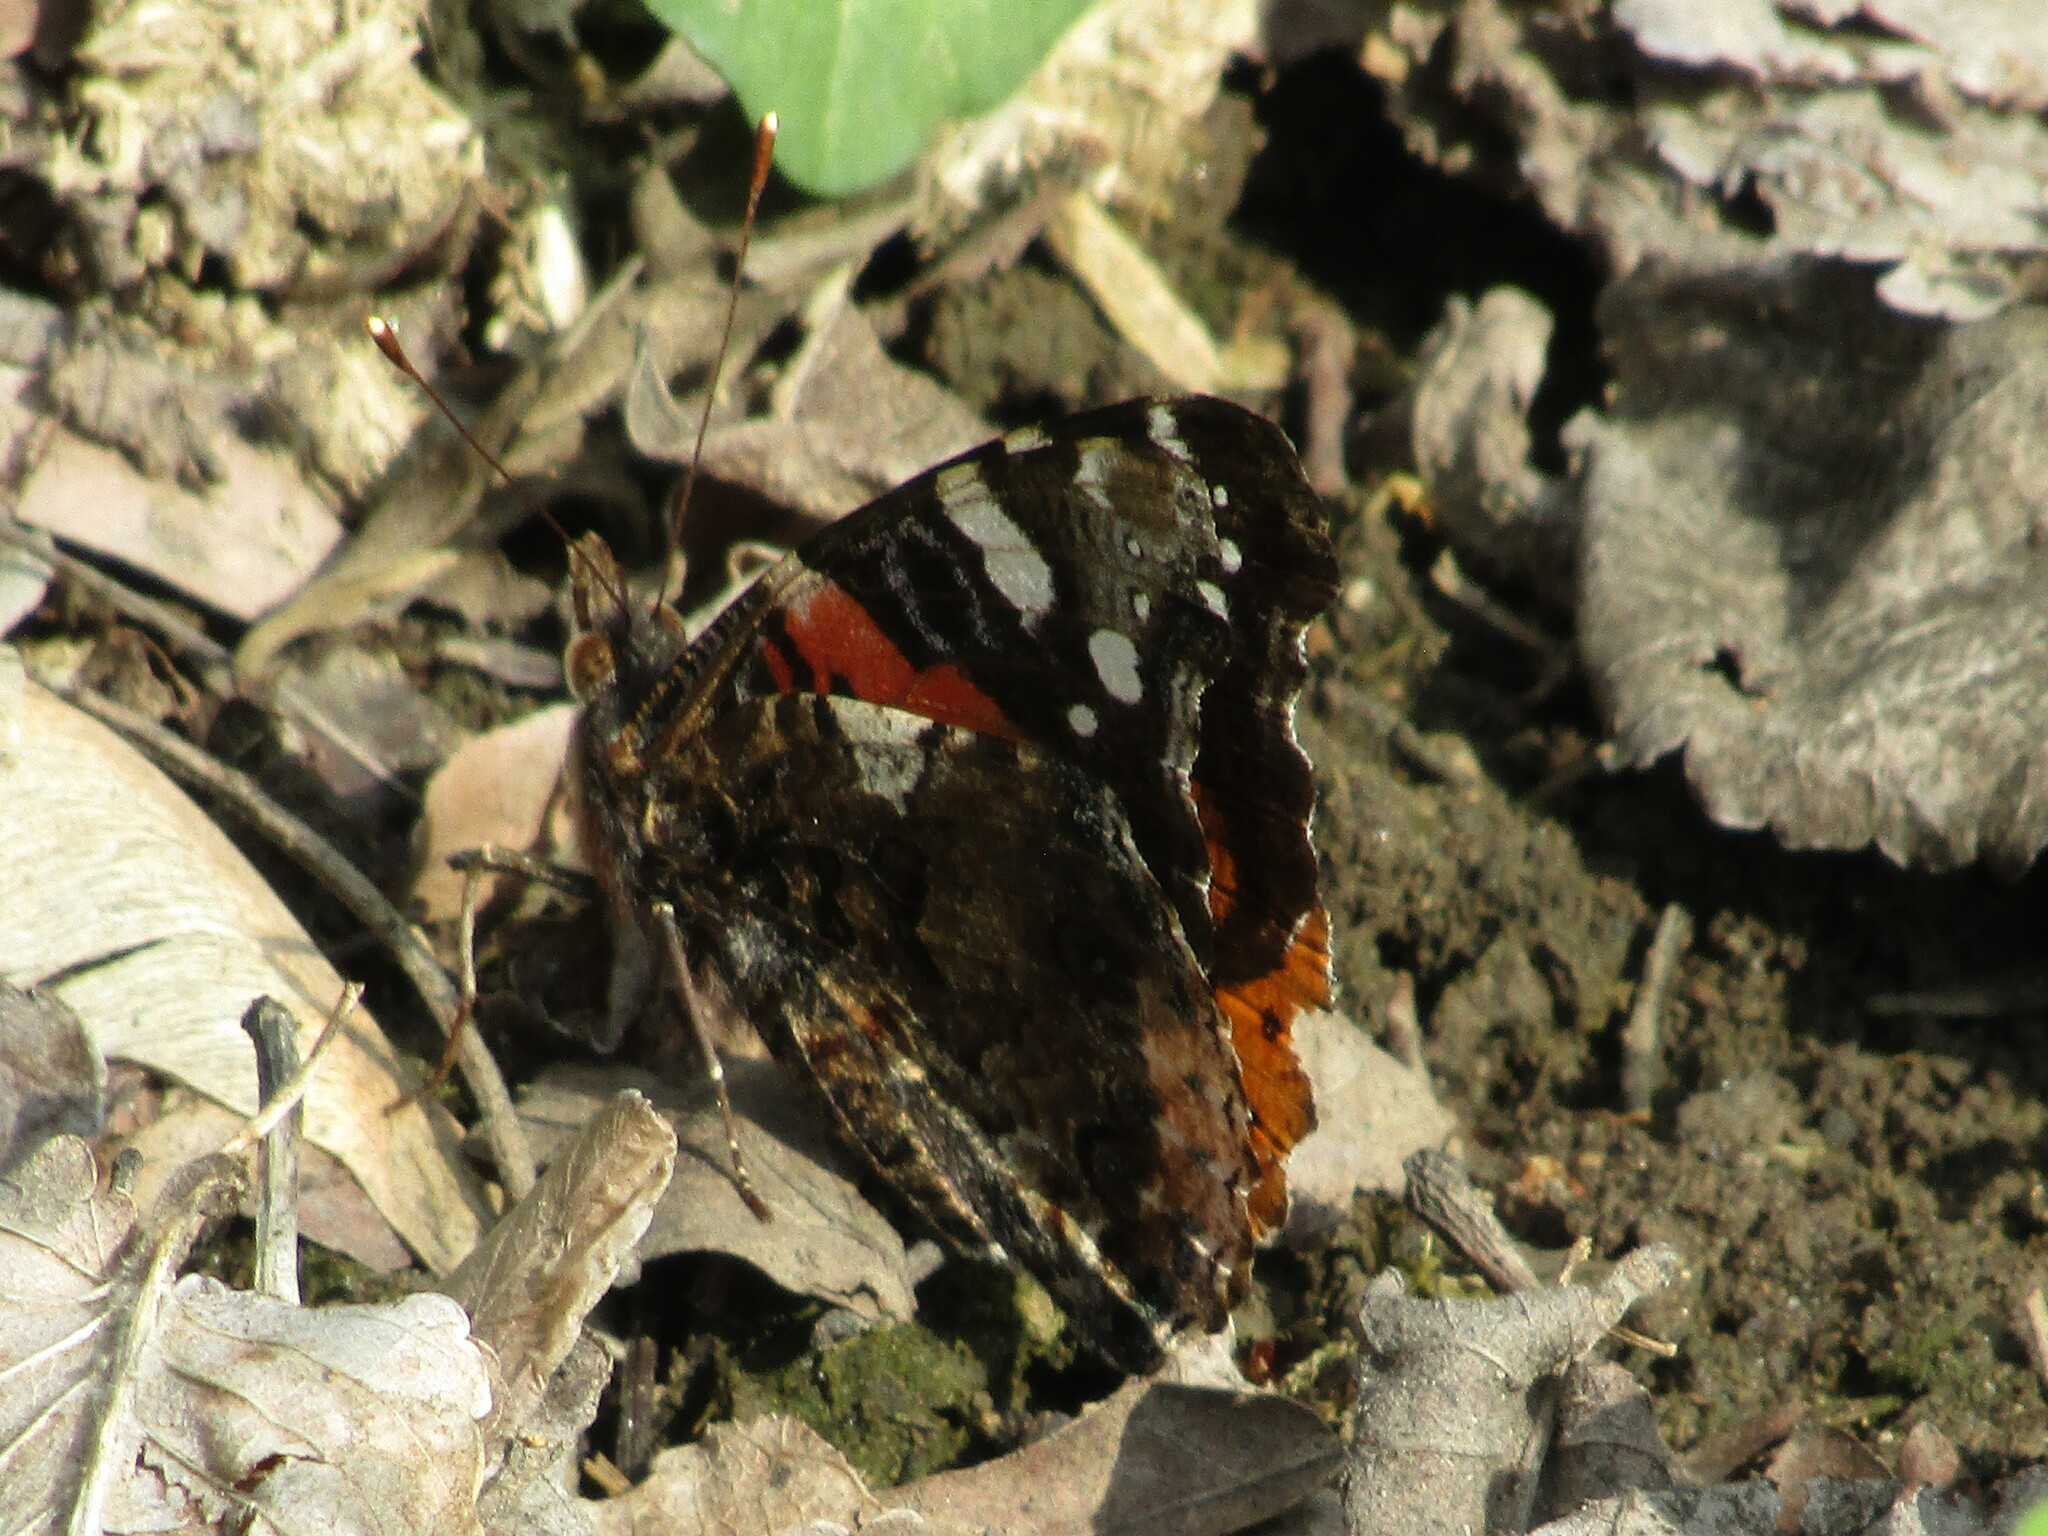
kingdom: Animalia
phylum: Arthropoda
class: Insecta
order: Lepidoptera
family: Nymphalidae
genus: Vanessa
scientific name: Vanessa atalanta
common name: Red admiral
